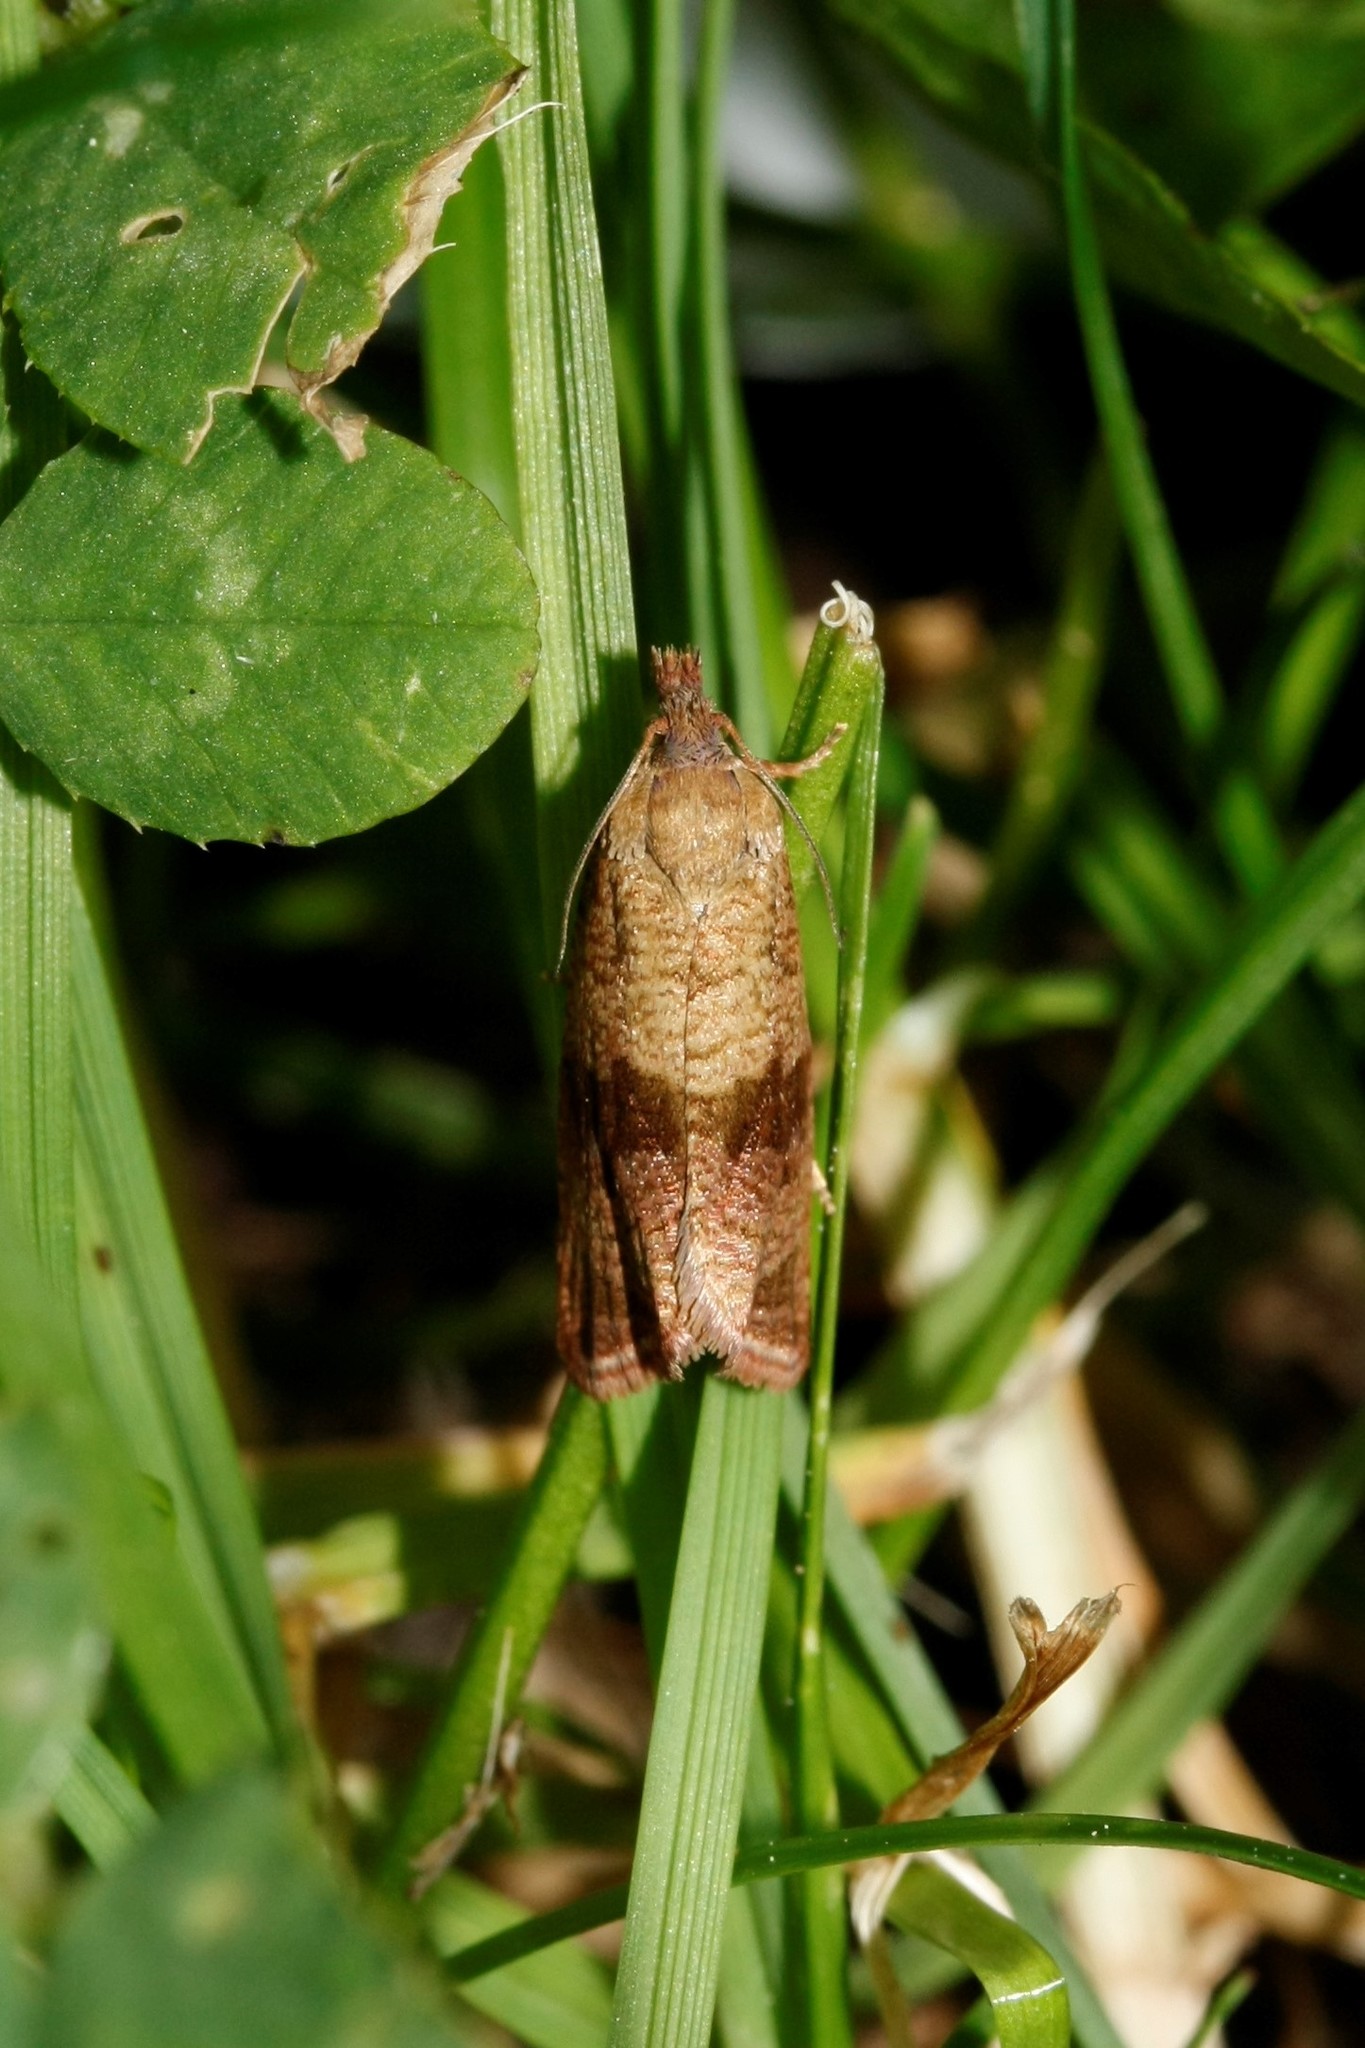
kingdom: Animalia
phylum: Arthropoda
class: Insecta
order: Lepidoptera
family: Tortricidae
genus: Celypha
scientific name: Celypha striana
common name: Barred marble
